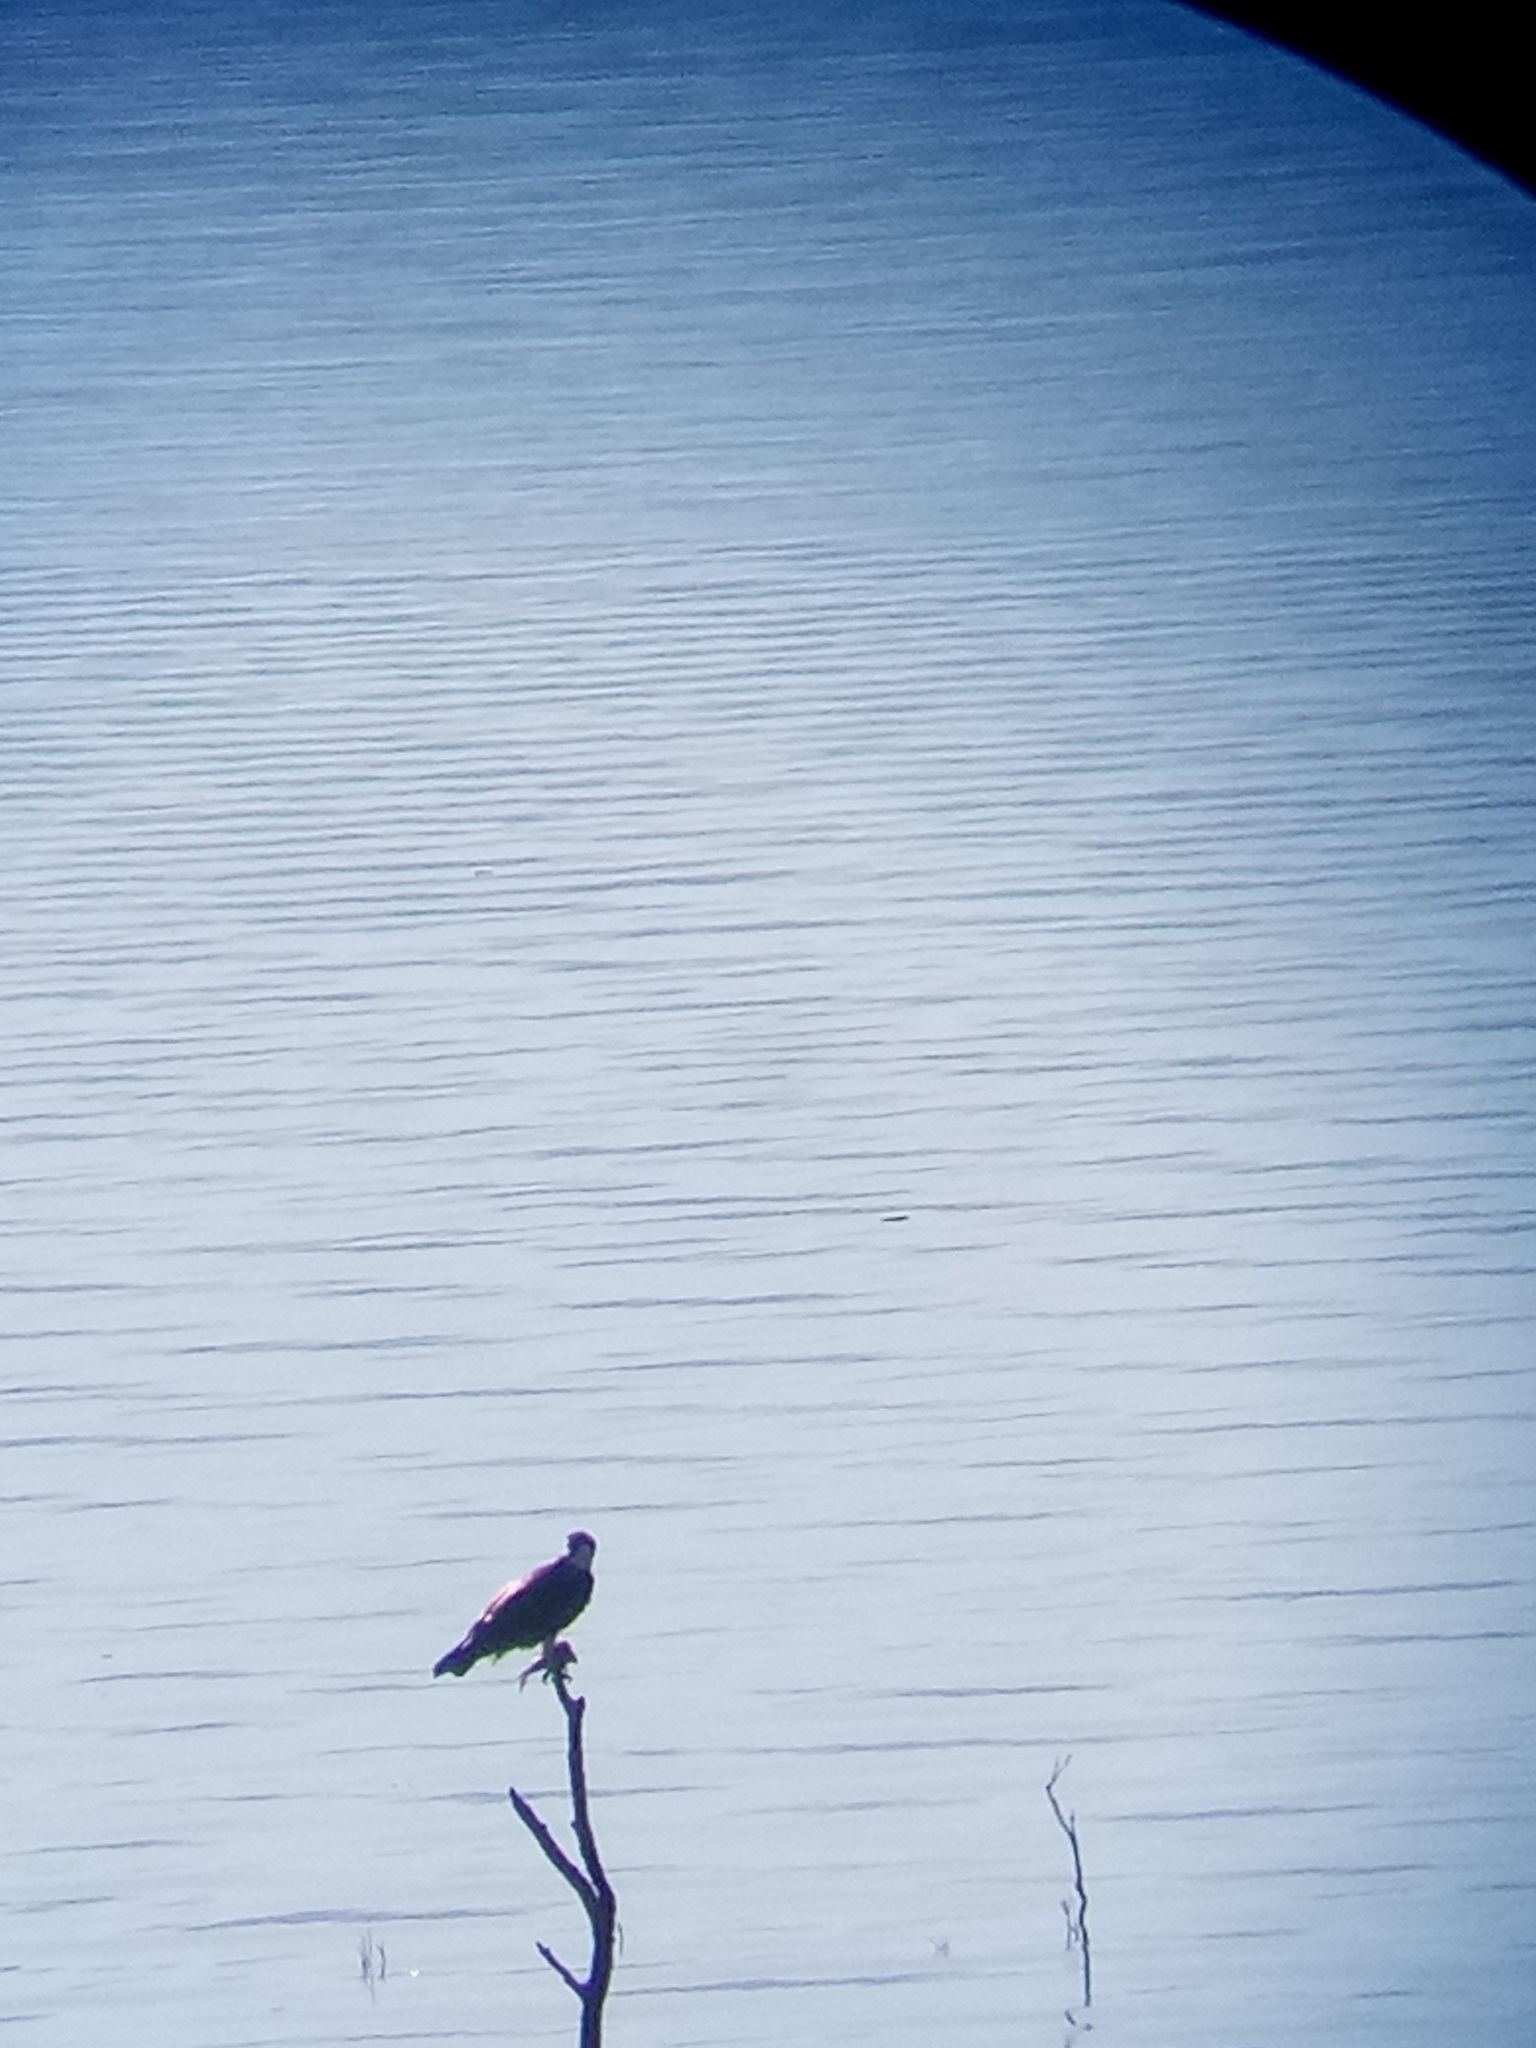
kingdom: Animalia
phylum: Chordata
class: Aves
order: Accipitriformes
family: Pandionidae
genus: Pandion
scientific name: Pandion haliaetus
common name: Osprey
